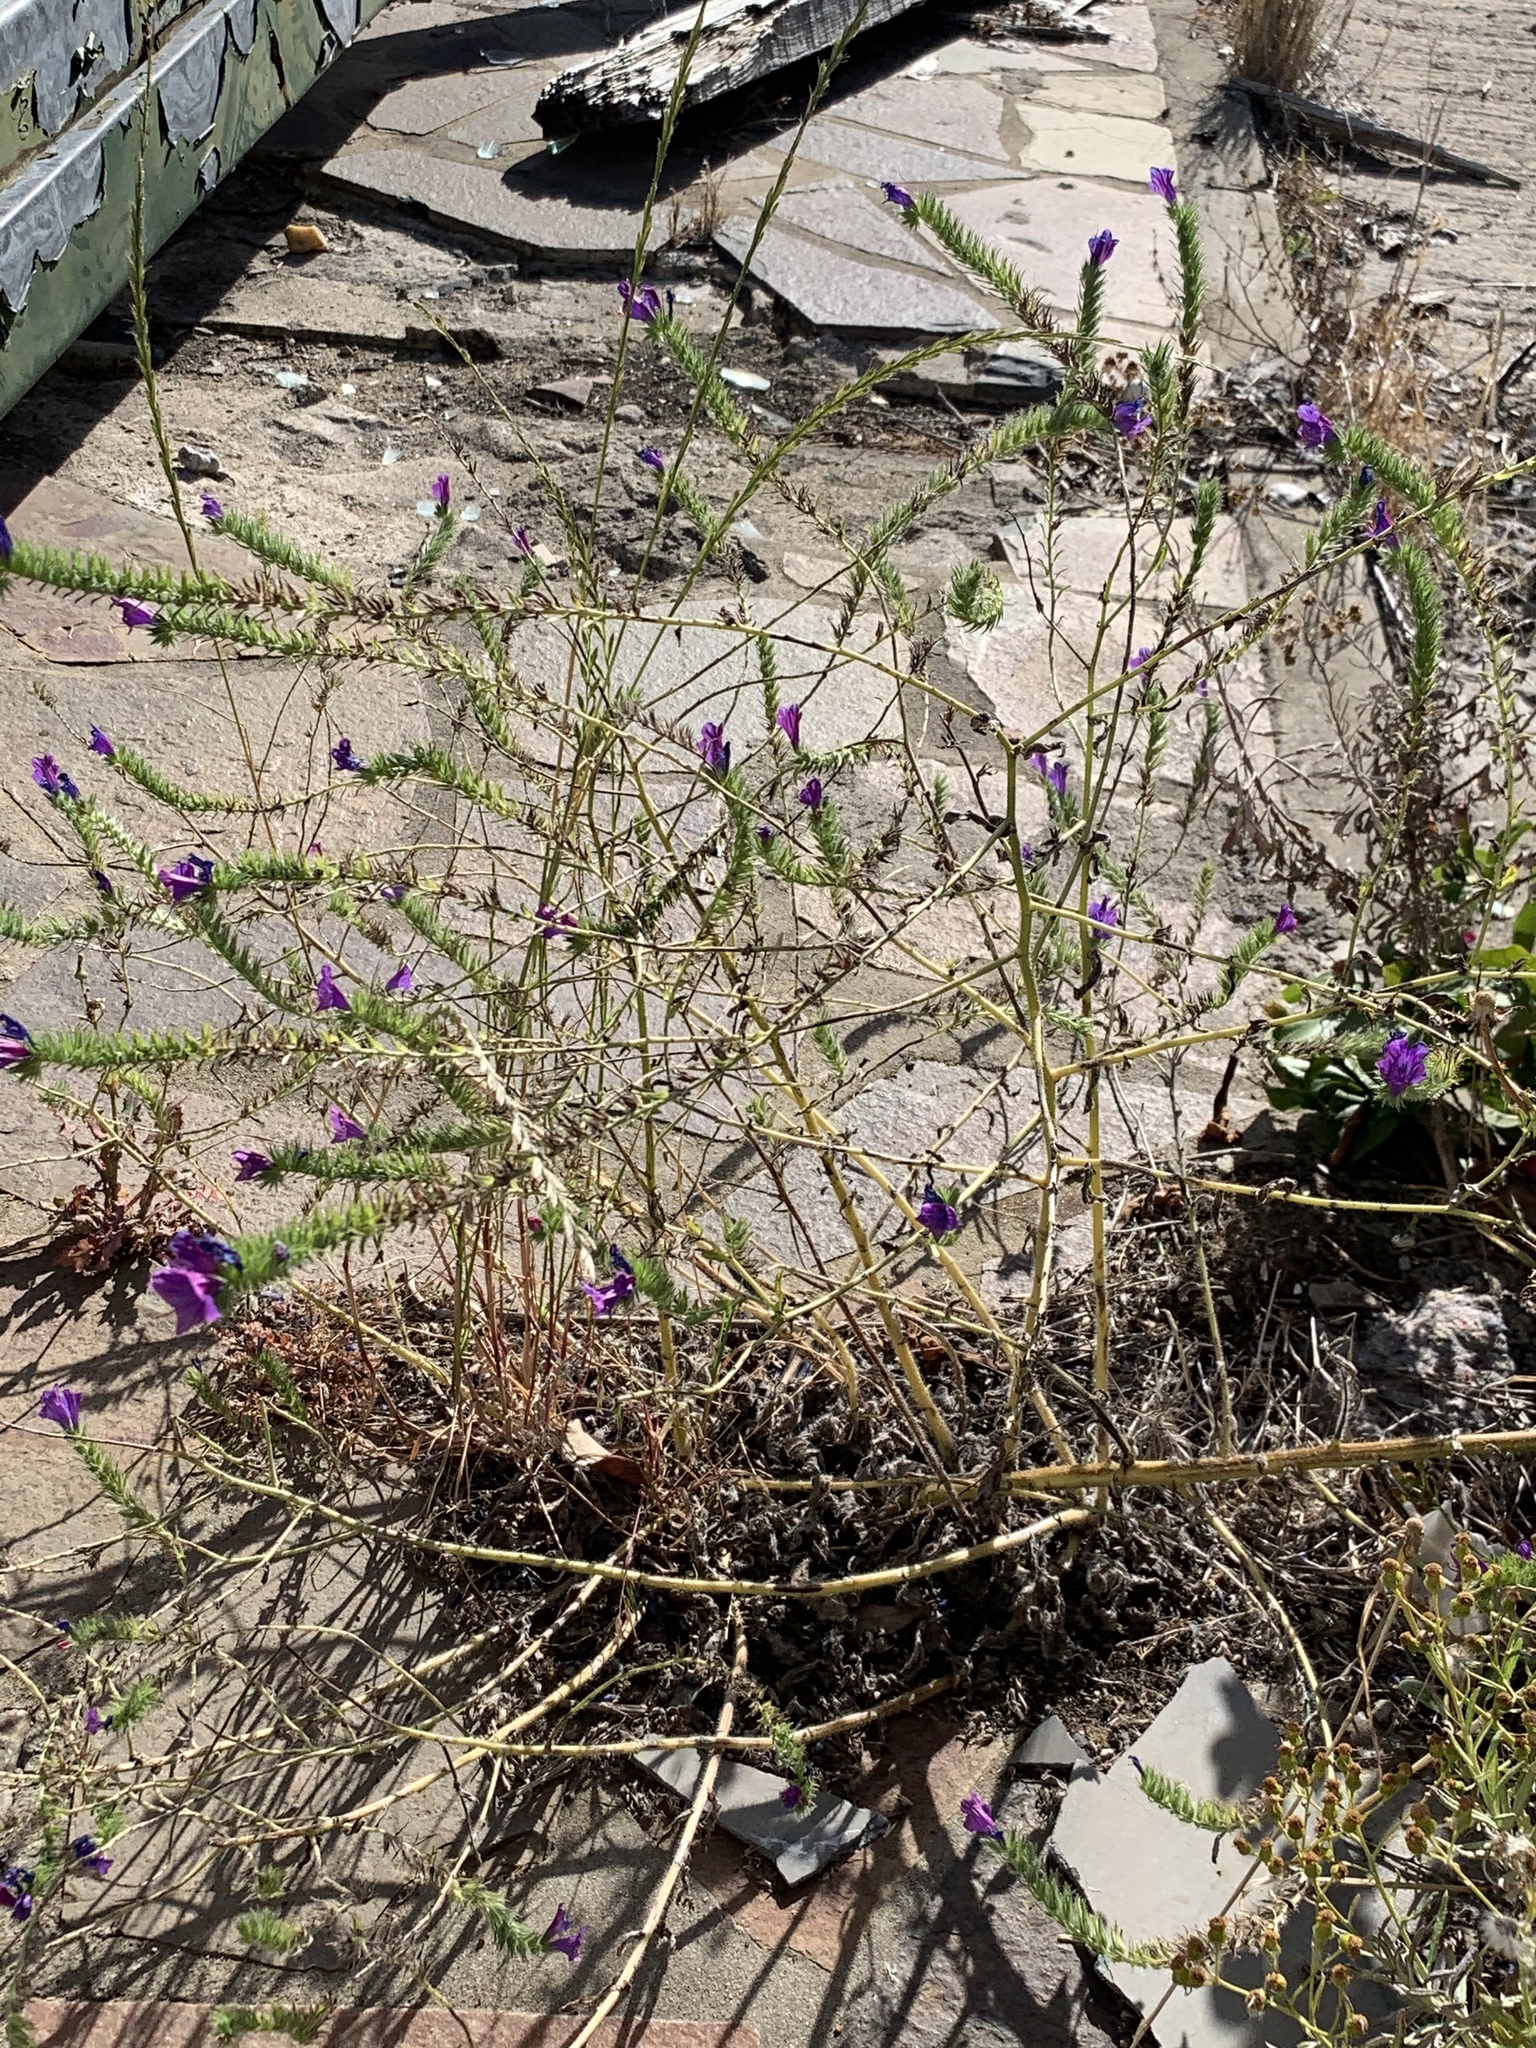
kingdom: Plantae
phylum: Tracheophyta
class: Magnoliopsida
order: Boraginales
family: Boraginaceae
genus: Echium
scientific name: Echium plantagineum
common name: Purple viper's-bugloss
